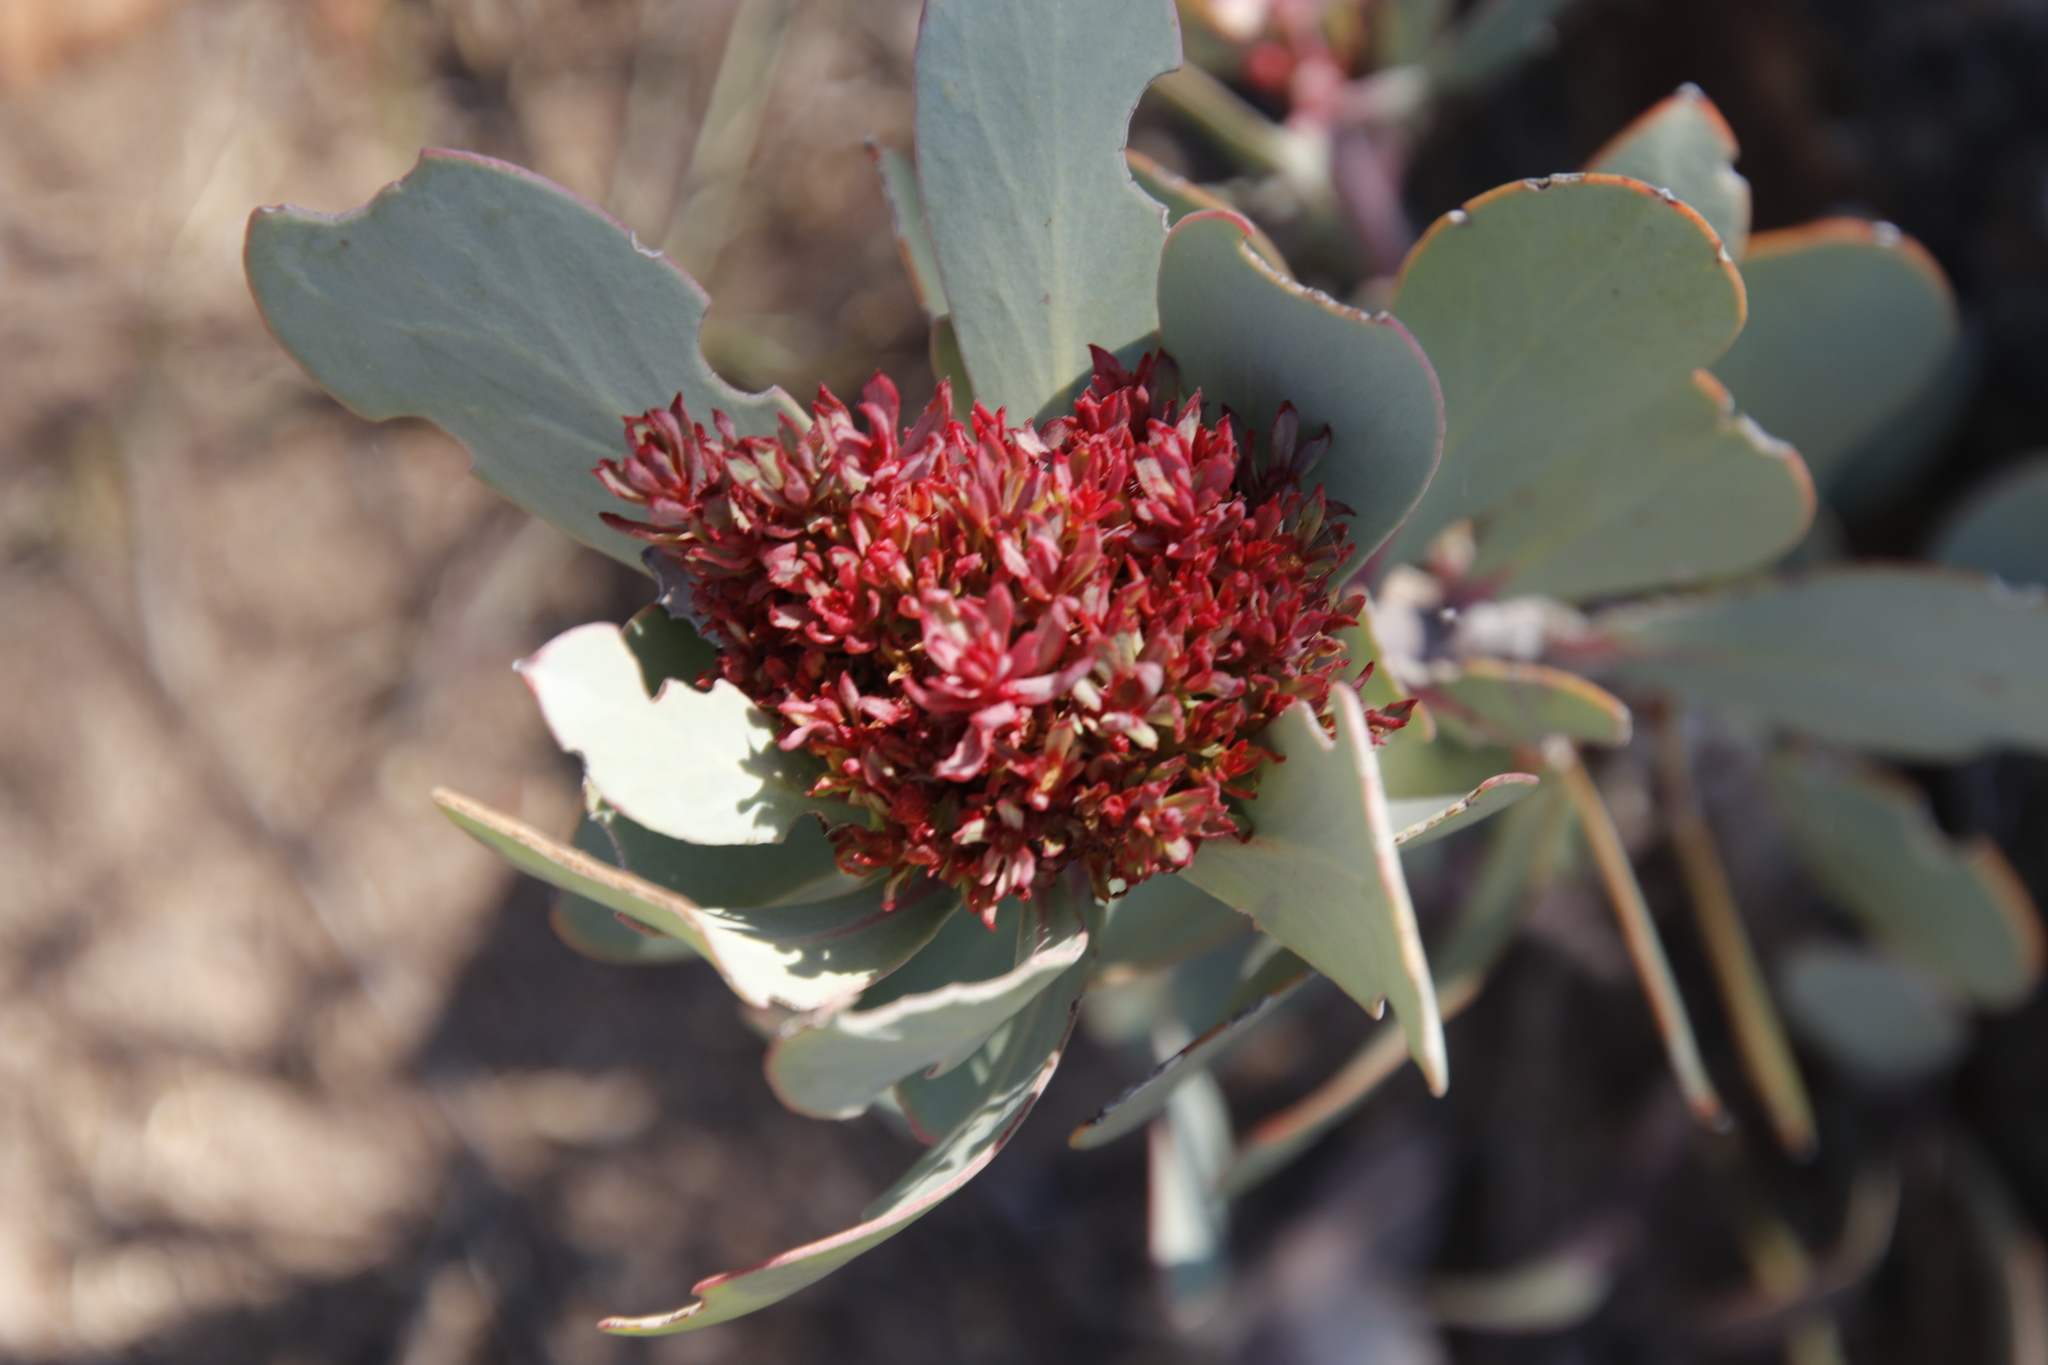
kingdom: Bacteria
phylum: Firmicutes
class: Bacilli
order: Acholeplasmatales
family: Acholeplasmataceae
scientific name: Acholeplasmataceae
